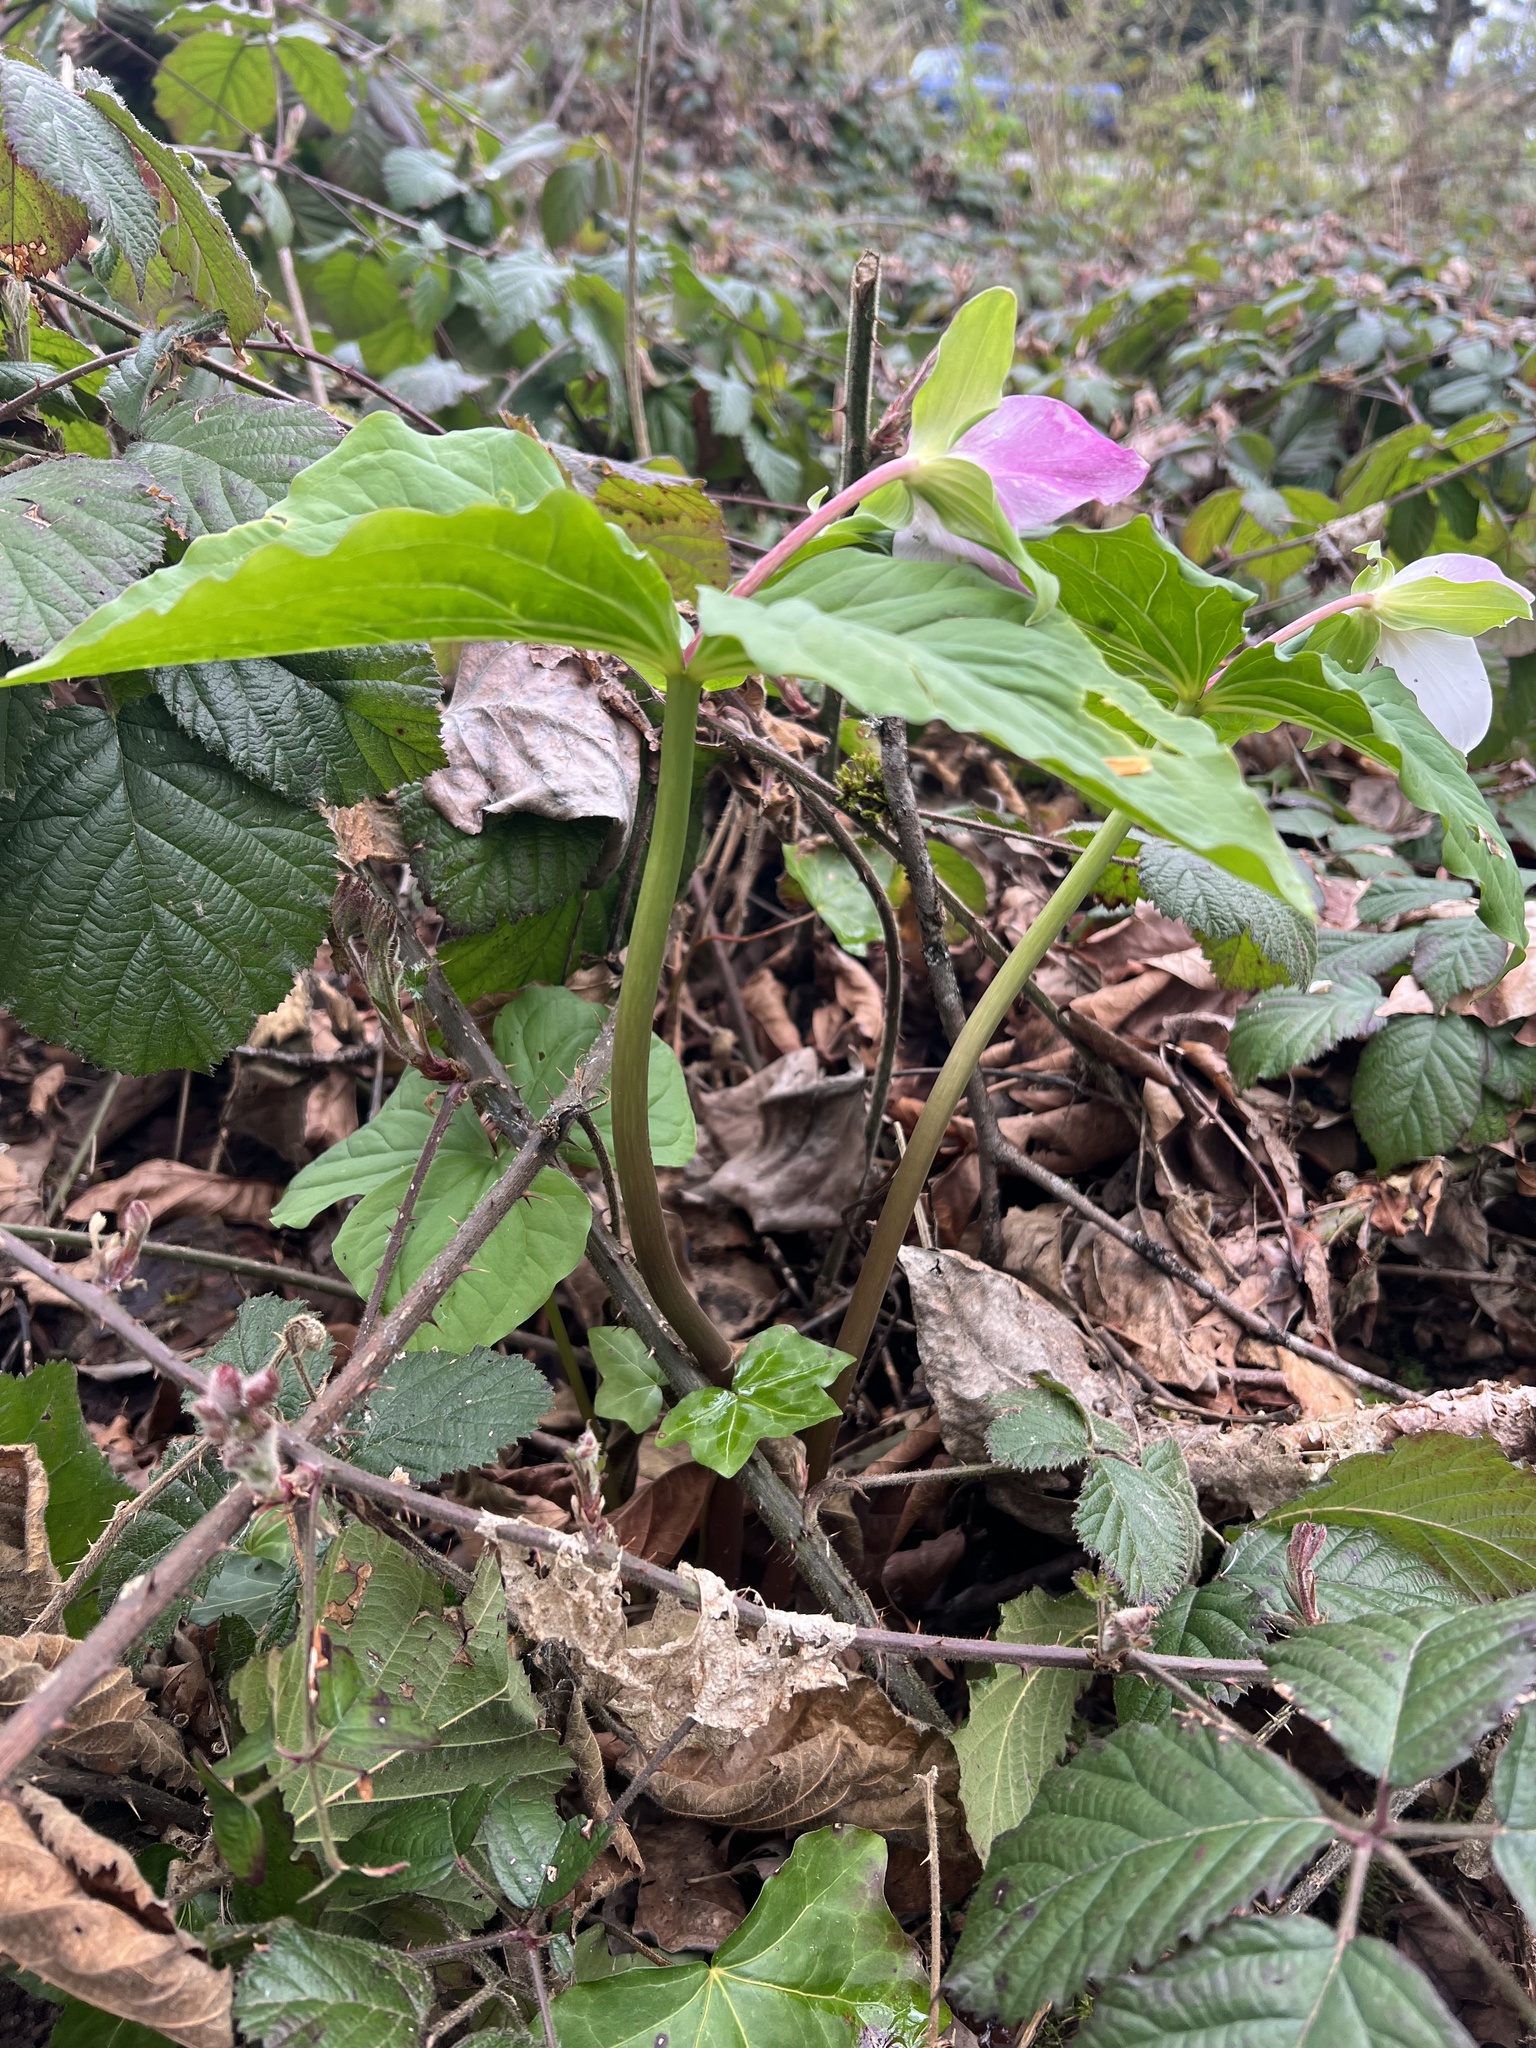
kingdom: Plantae
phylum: Tracheophyta
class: Liliopsida
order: Liliales
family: Melanthiaceae
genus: Trillium
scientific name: Trillium ovatum
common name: Pacific trillium
